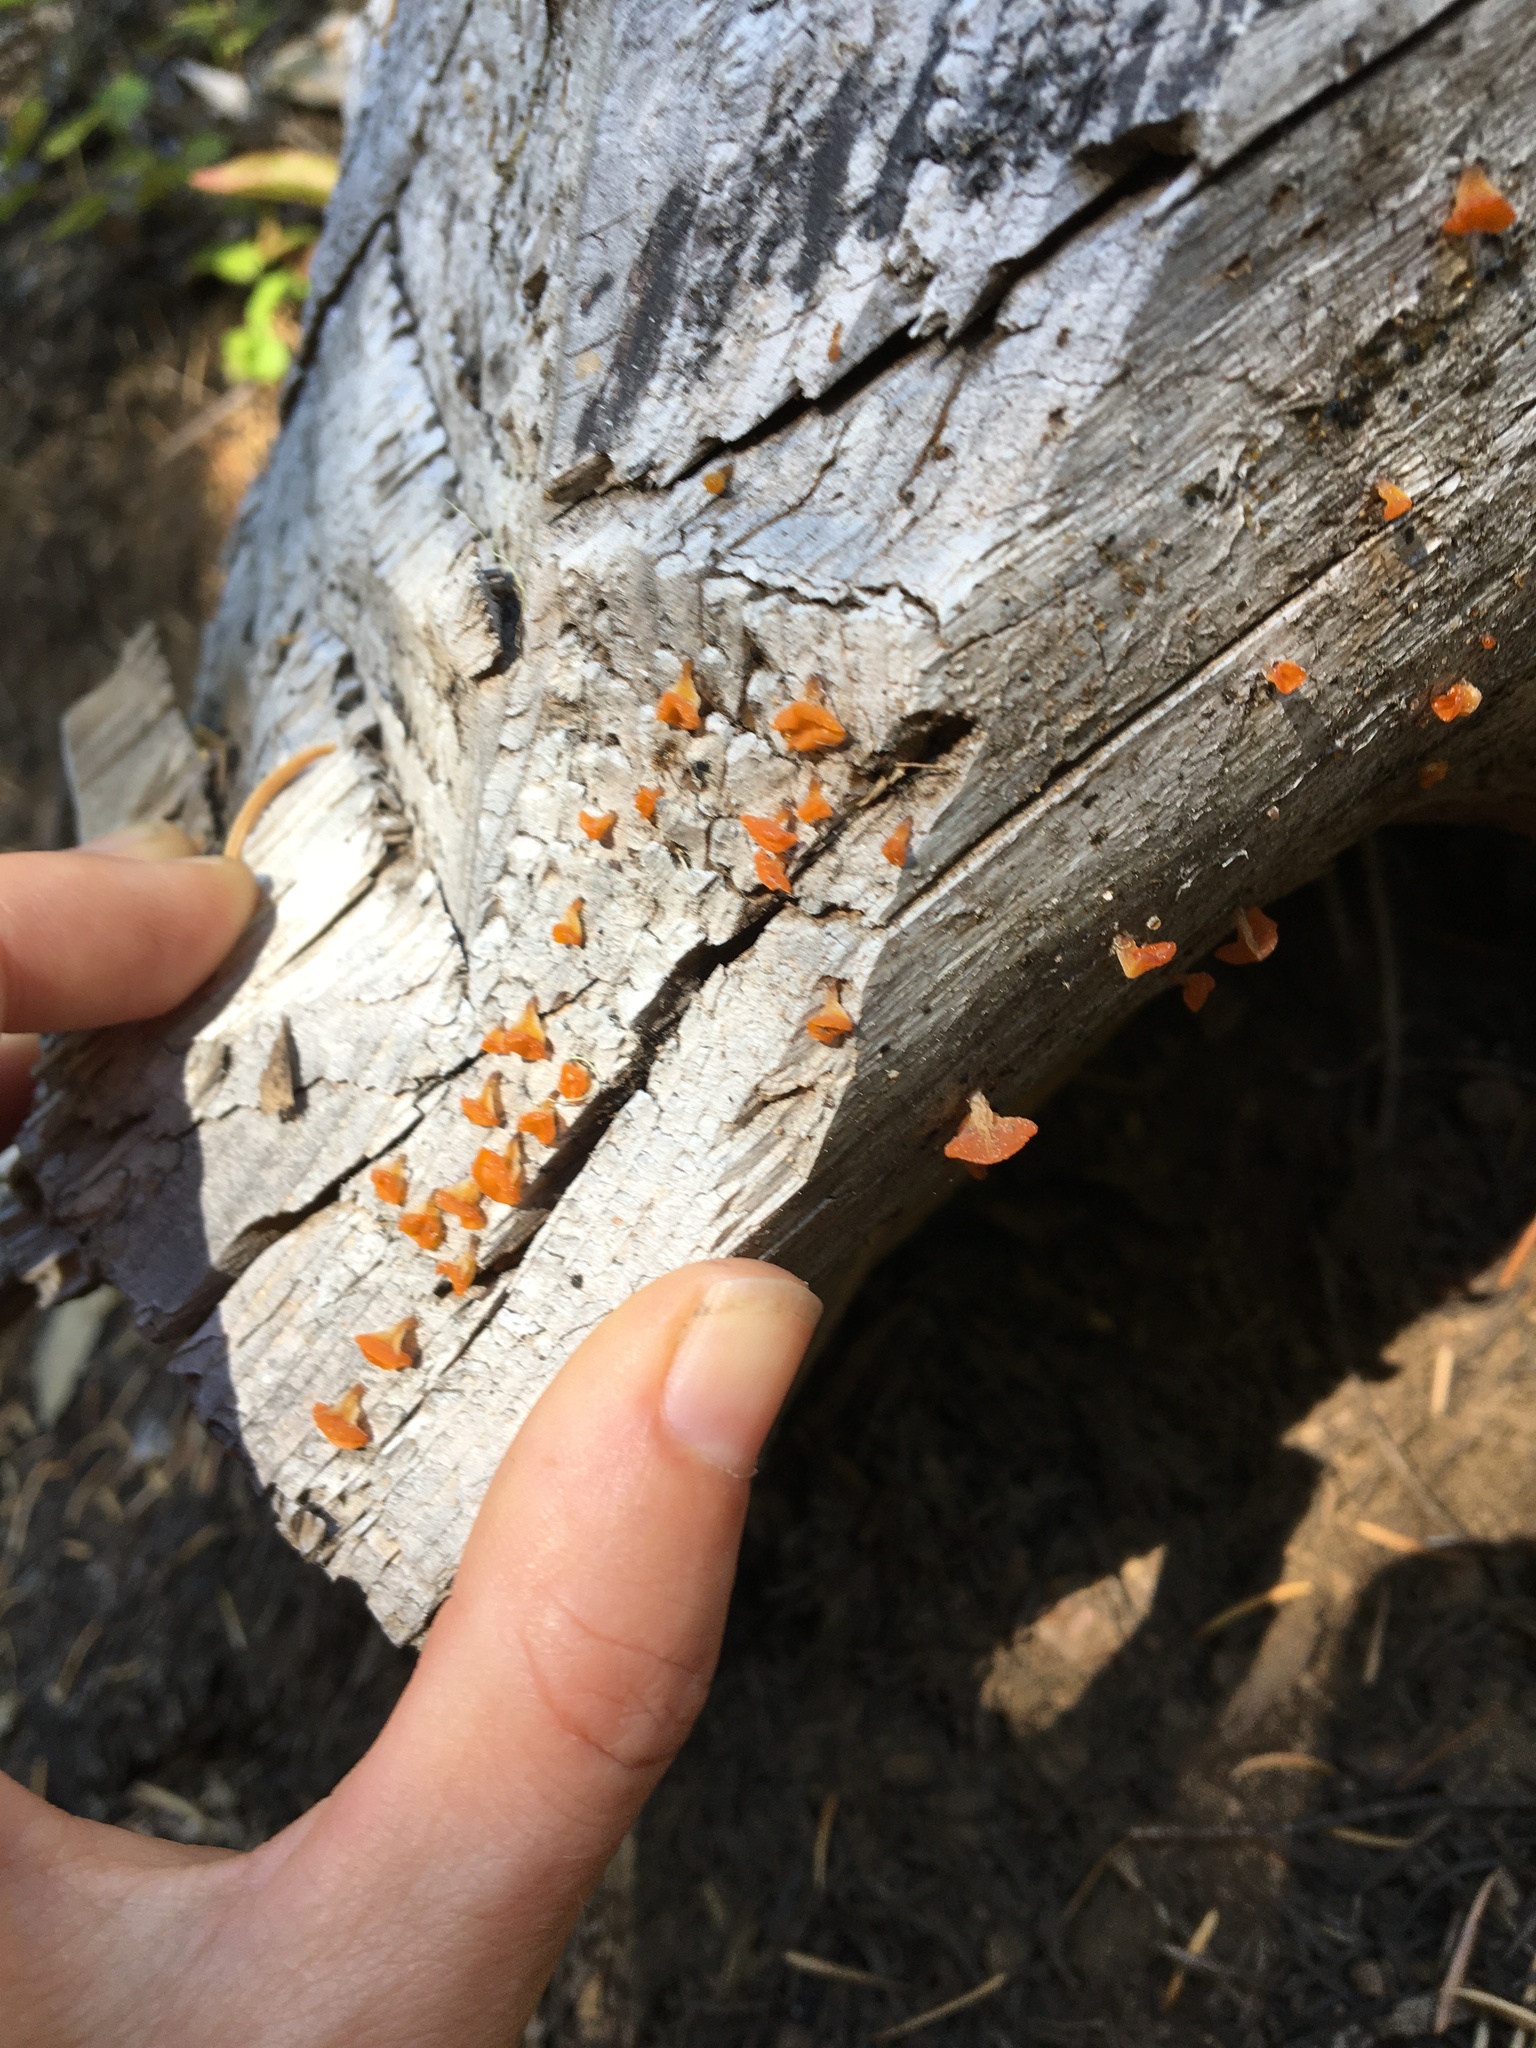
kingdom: Fungi
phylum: Basidiomycota
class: Dacrymycetes
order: Dacrymycetales
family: Dacrymycetaceae
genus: Guepiniopsis
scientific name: Guepiniopsis alpina
